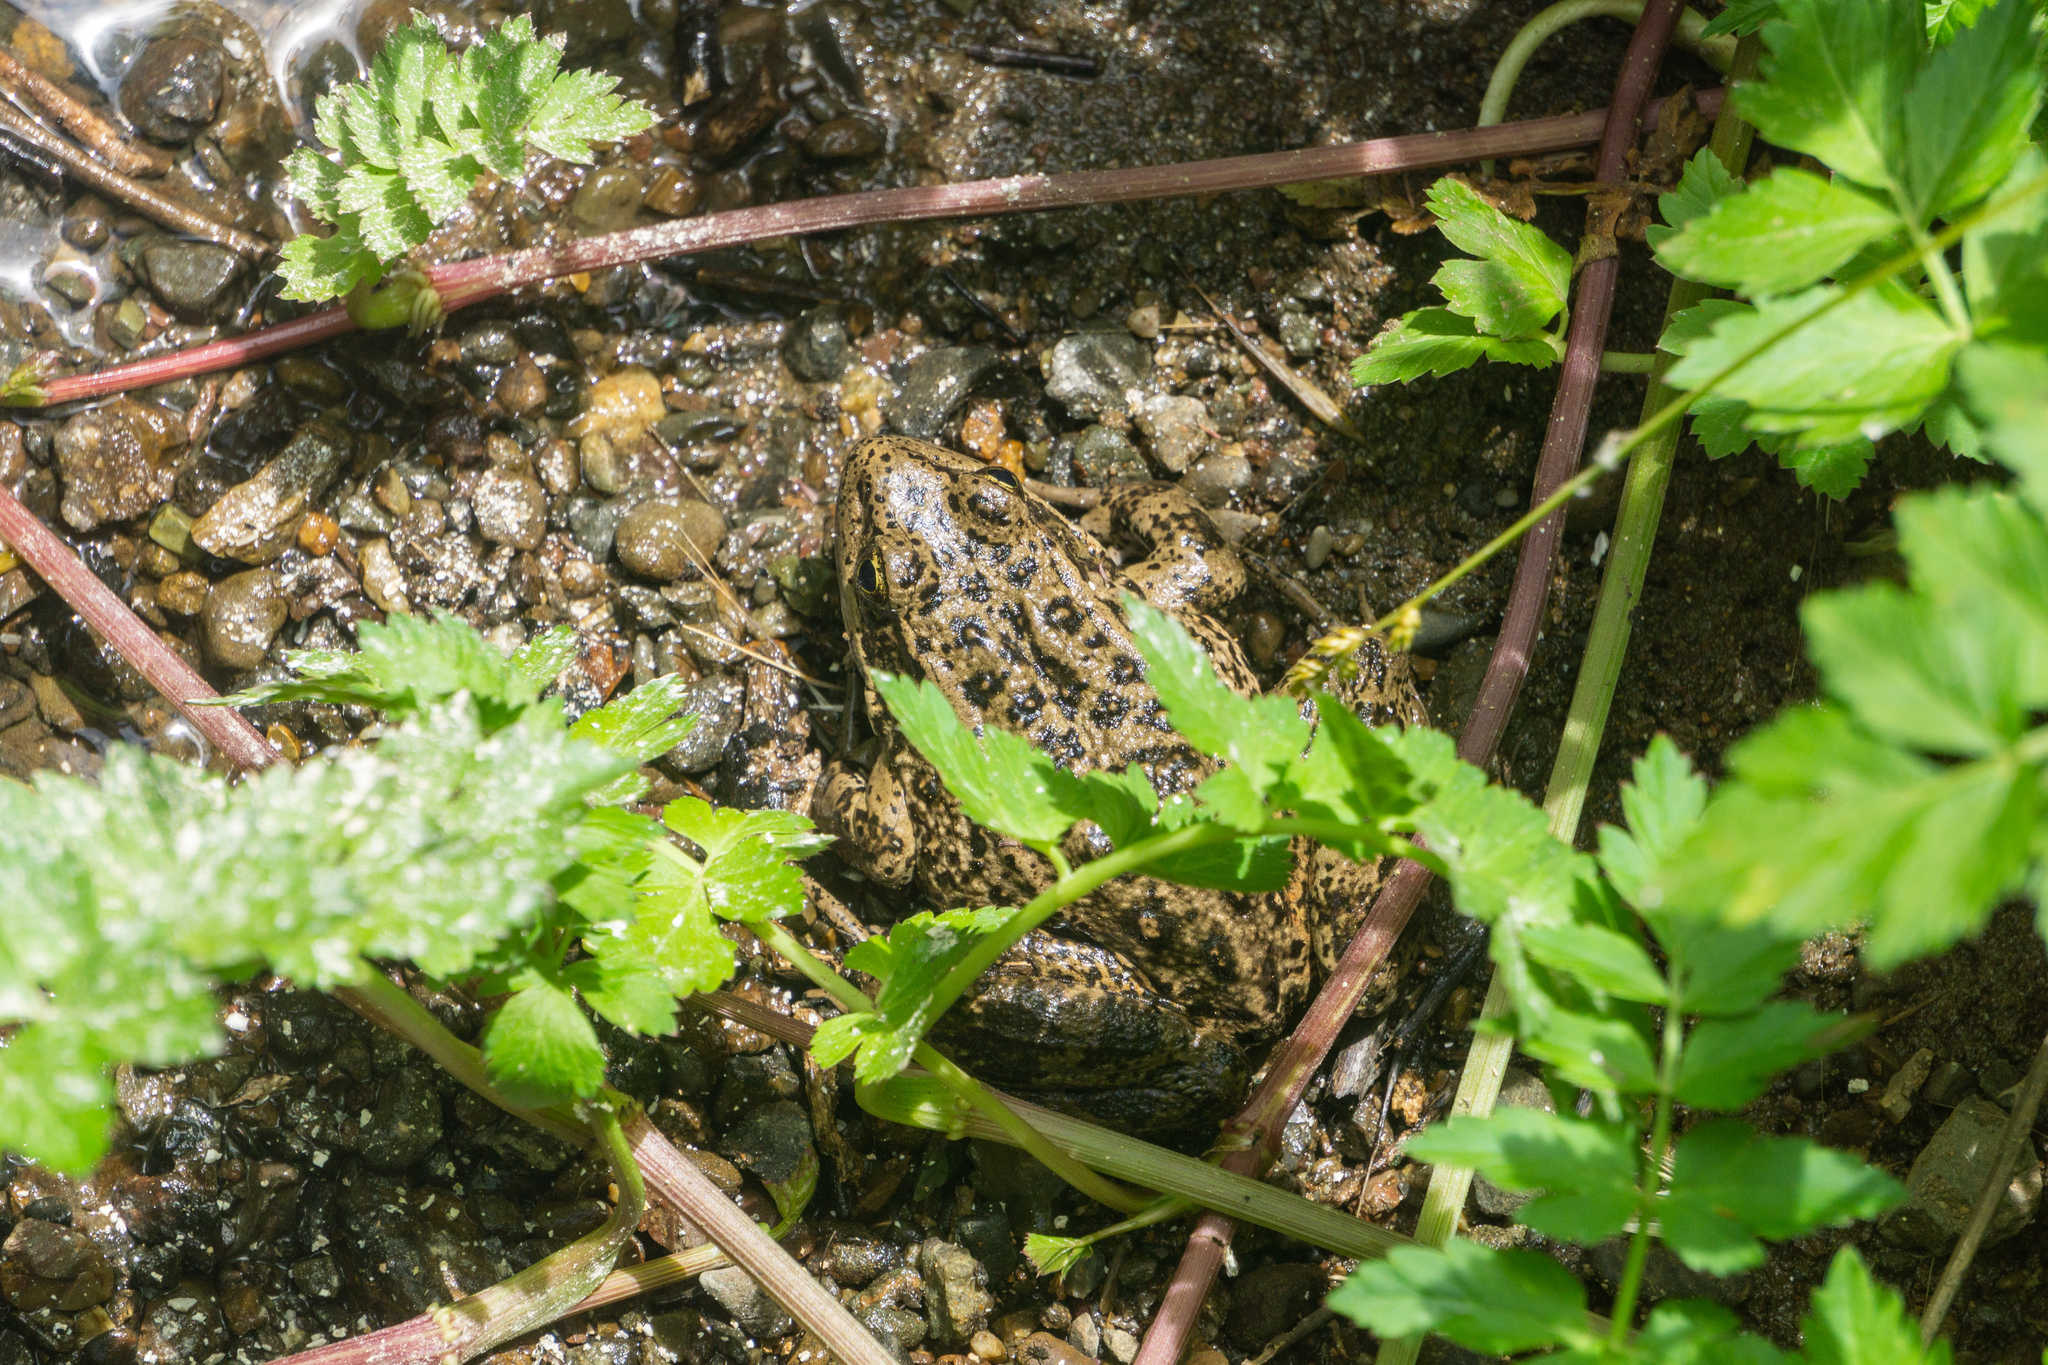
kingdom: Animalia
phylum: Chordata
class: Amphibia
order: Anura
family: Ranidae
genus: Rana
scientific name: Rana draytonii
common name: California red-legged frog
